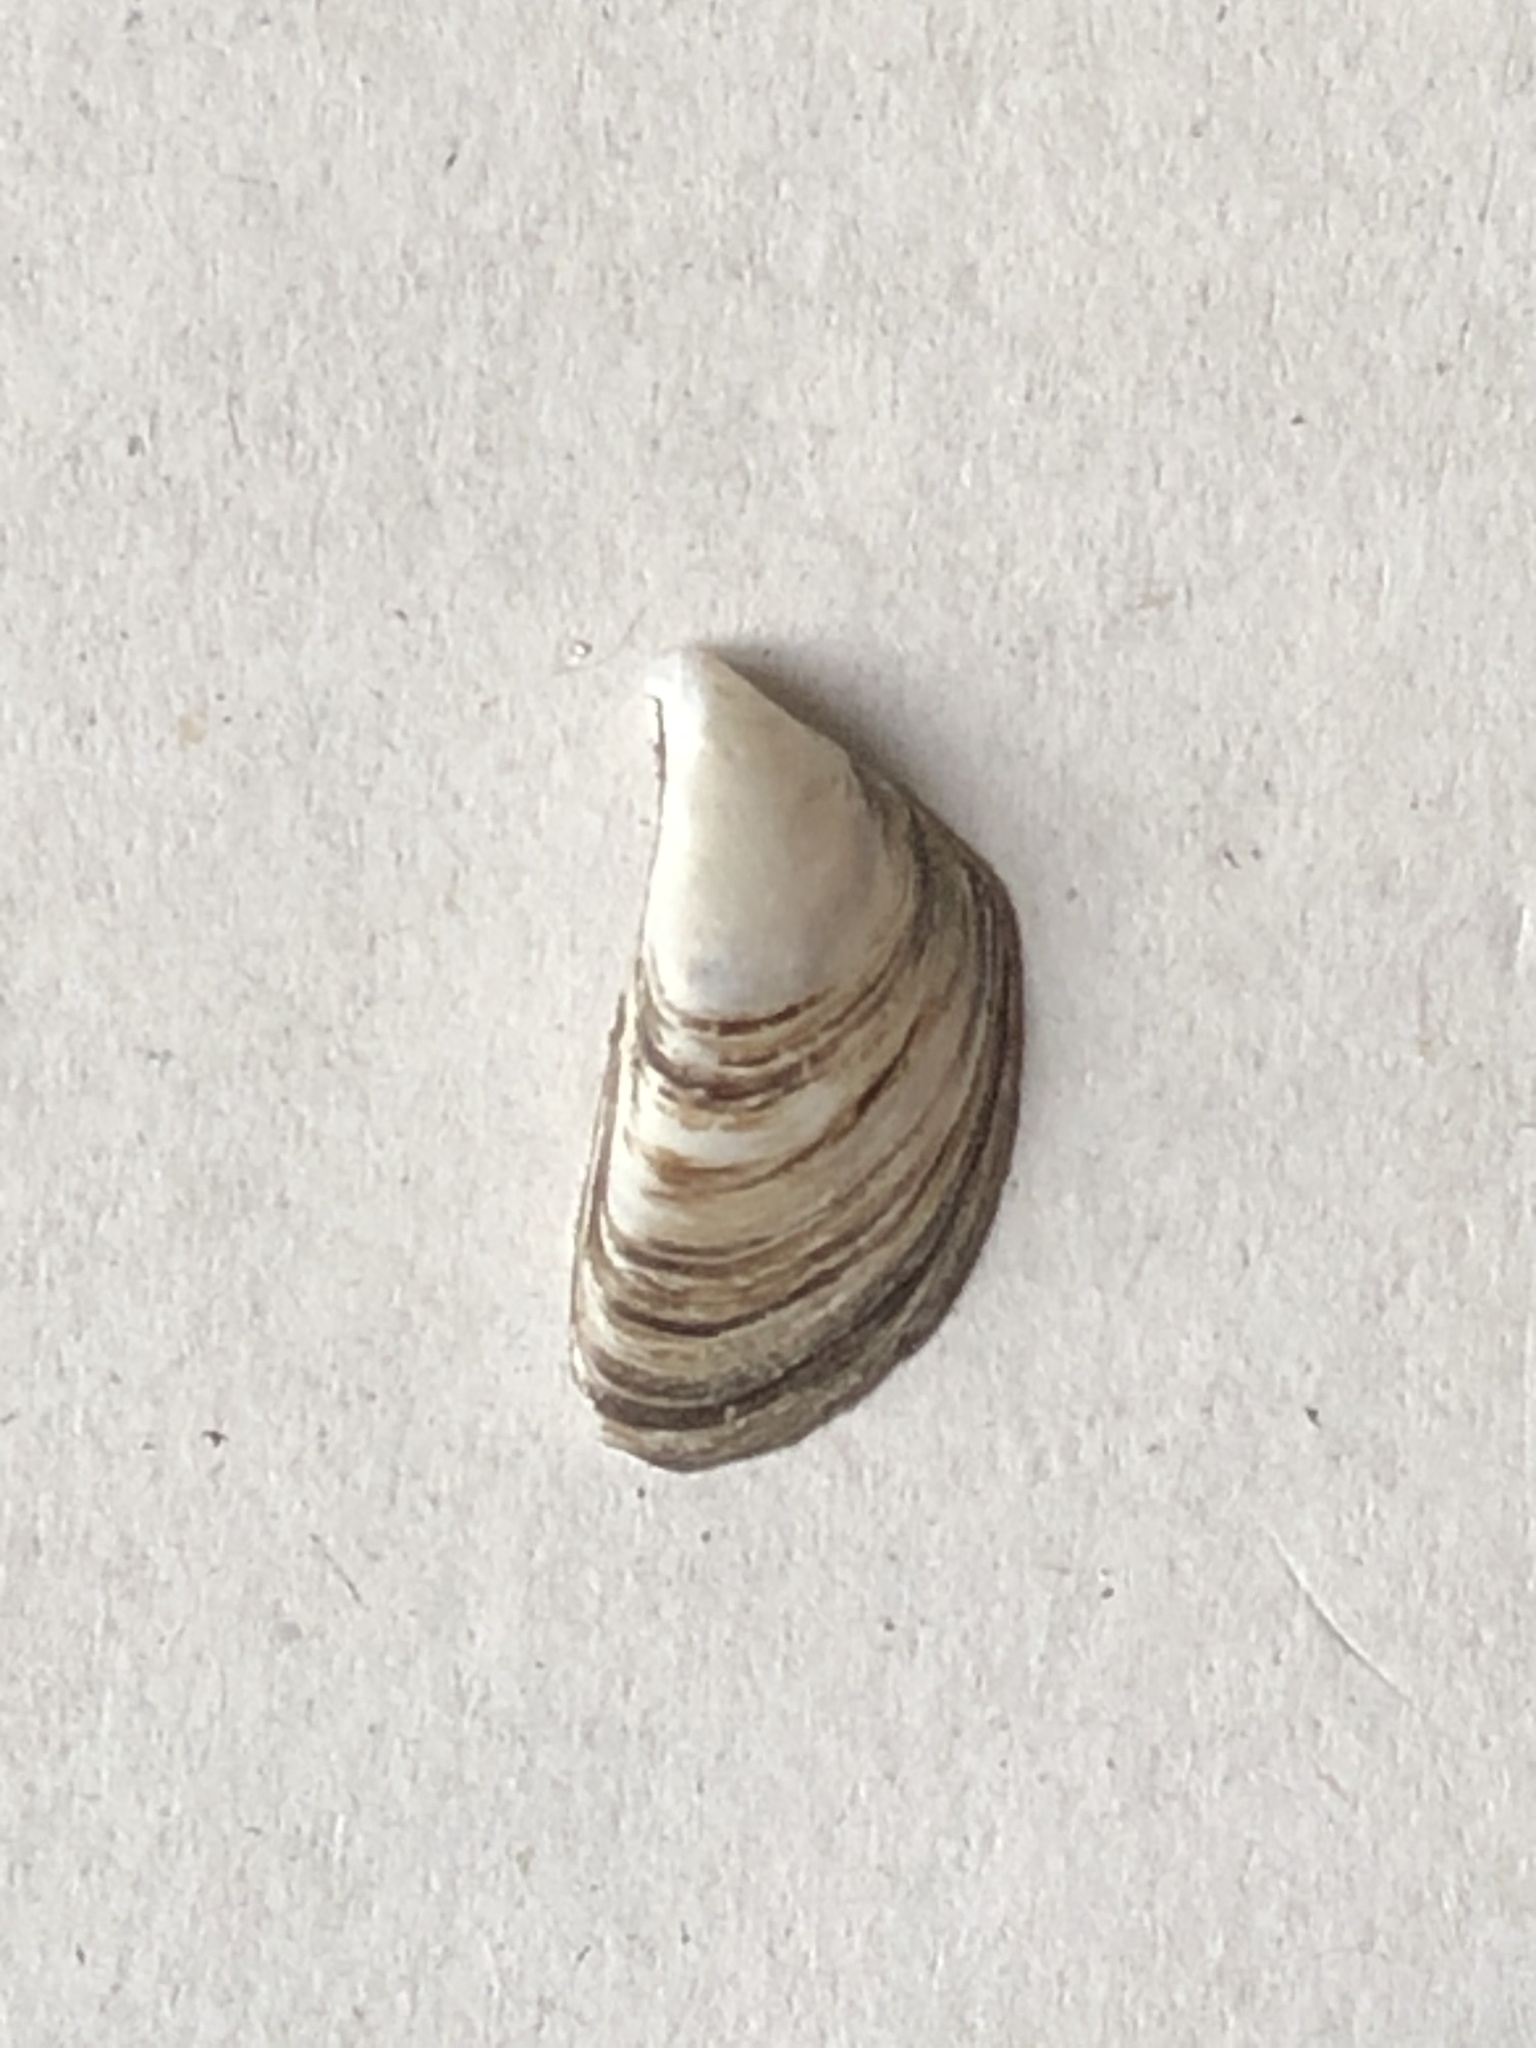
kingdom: Animalia
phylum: Mollusca
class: Bivalvia
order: Myida
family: Dreissenidae
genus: Dreissena
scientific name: Dreissena polymorpha
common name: Zebra mussel
